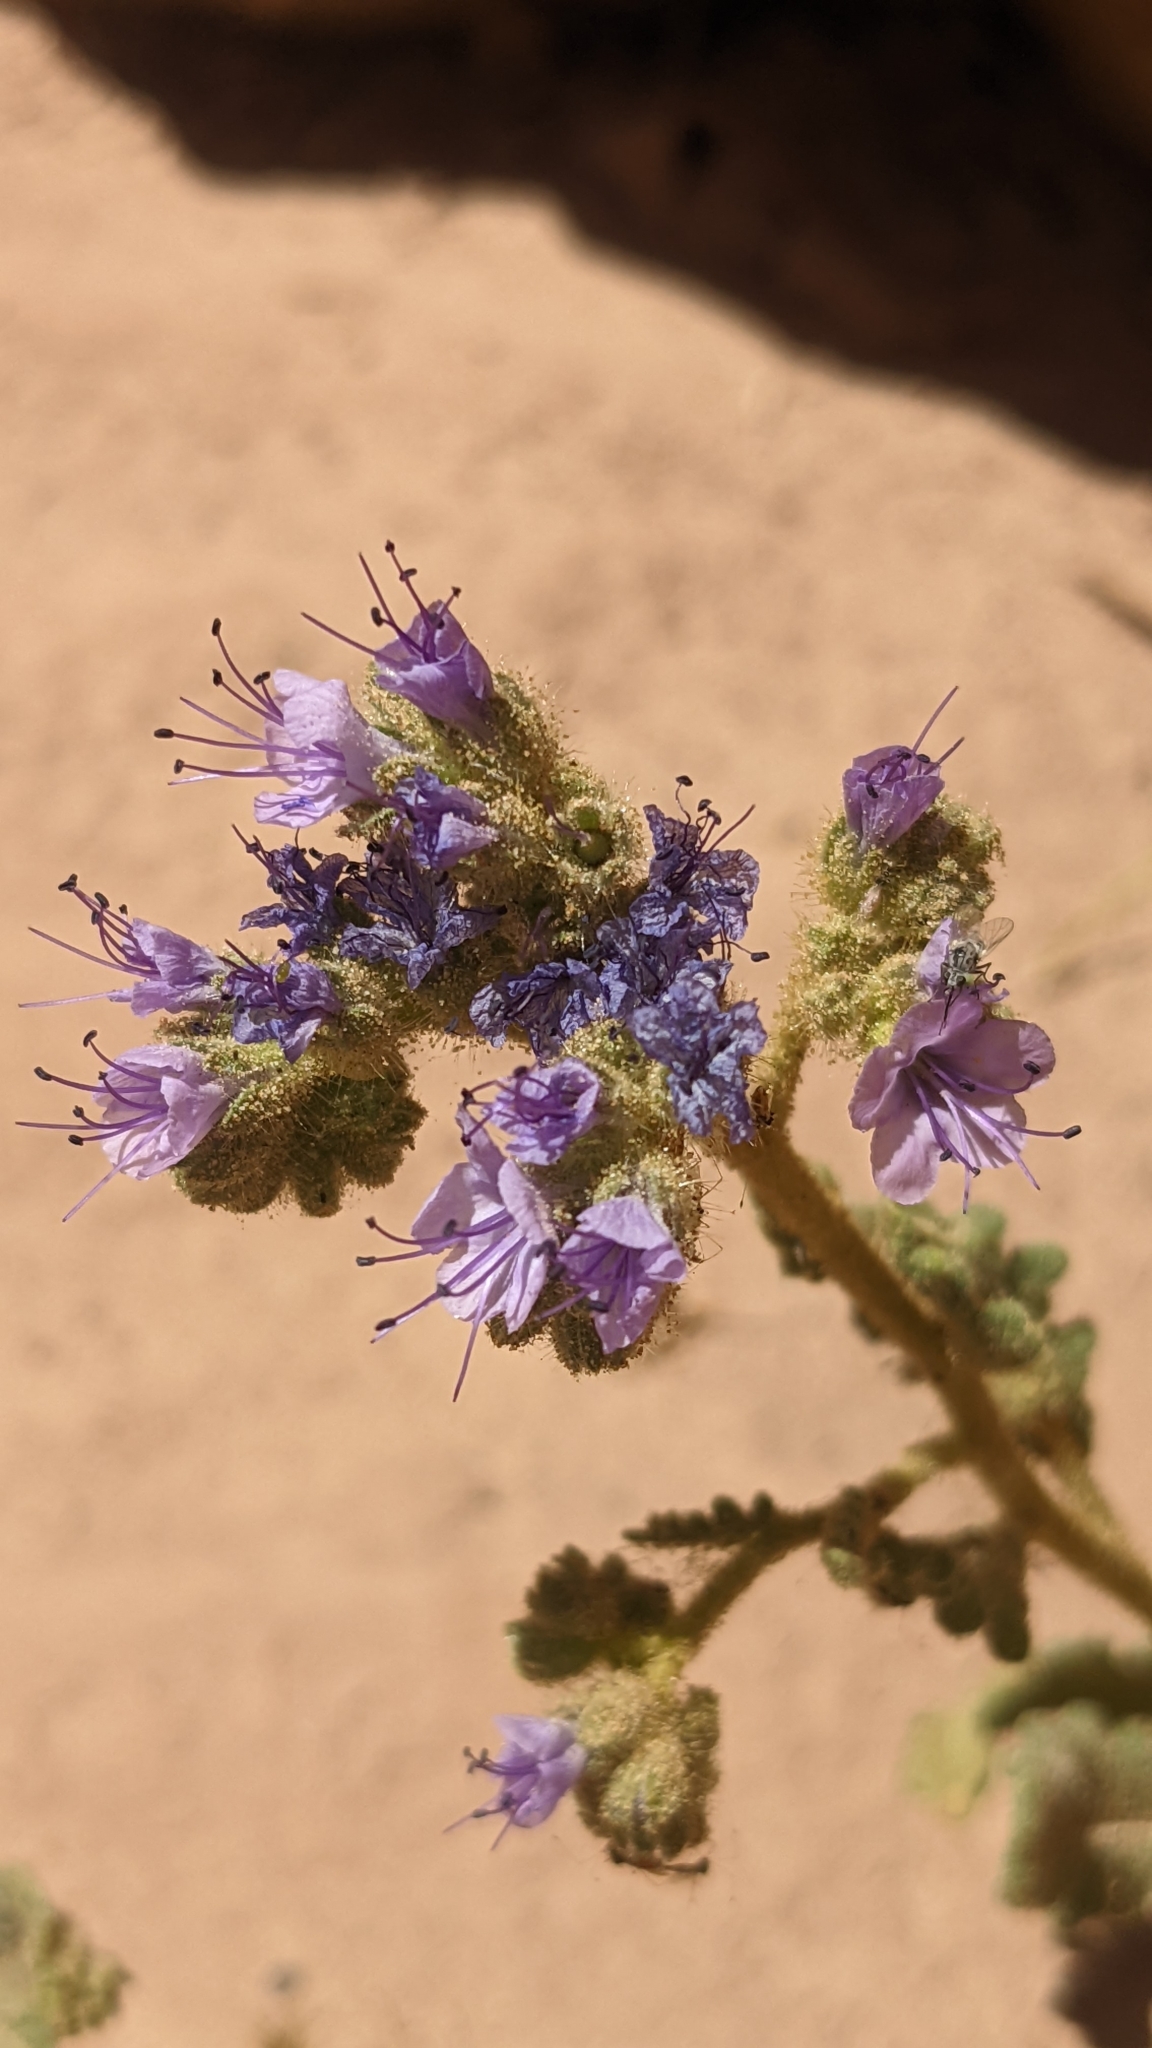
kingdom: Plantae
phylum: Tracheophyta
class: Magnoliopsida
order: Boraginales
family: Hydrophyllaceae
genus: Phacelia
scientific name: Phacelia integrifolia
